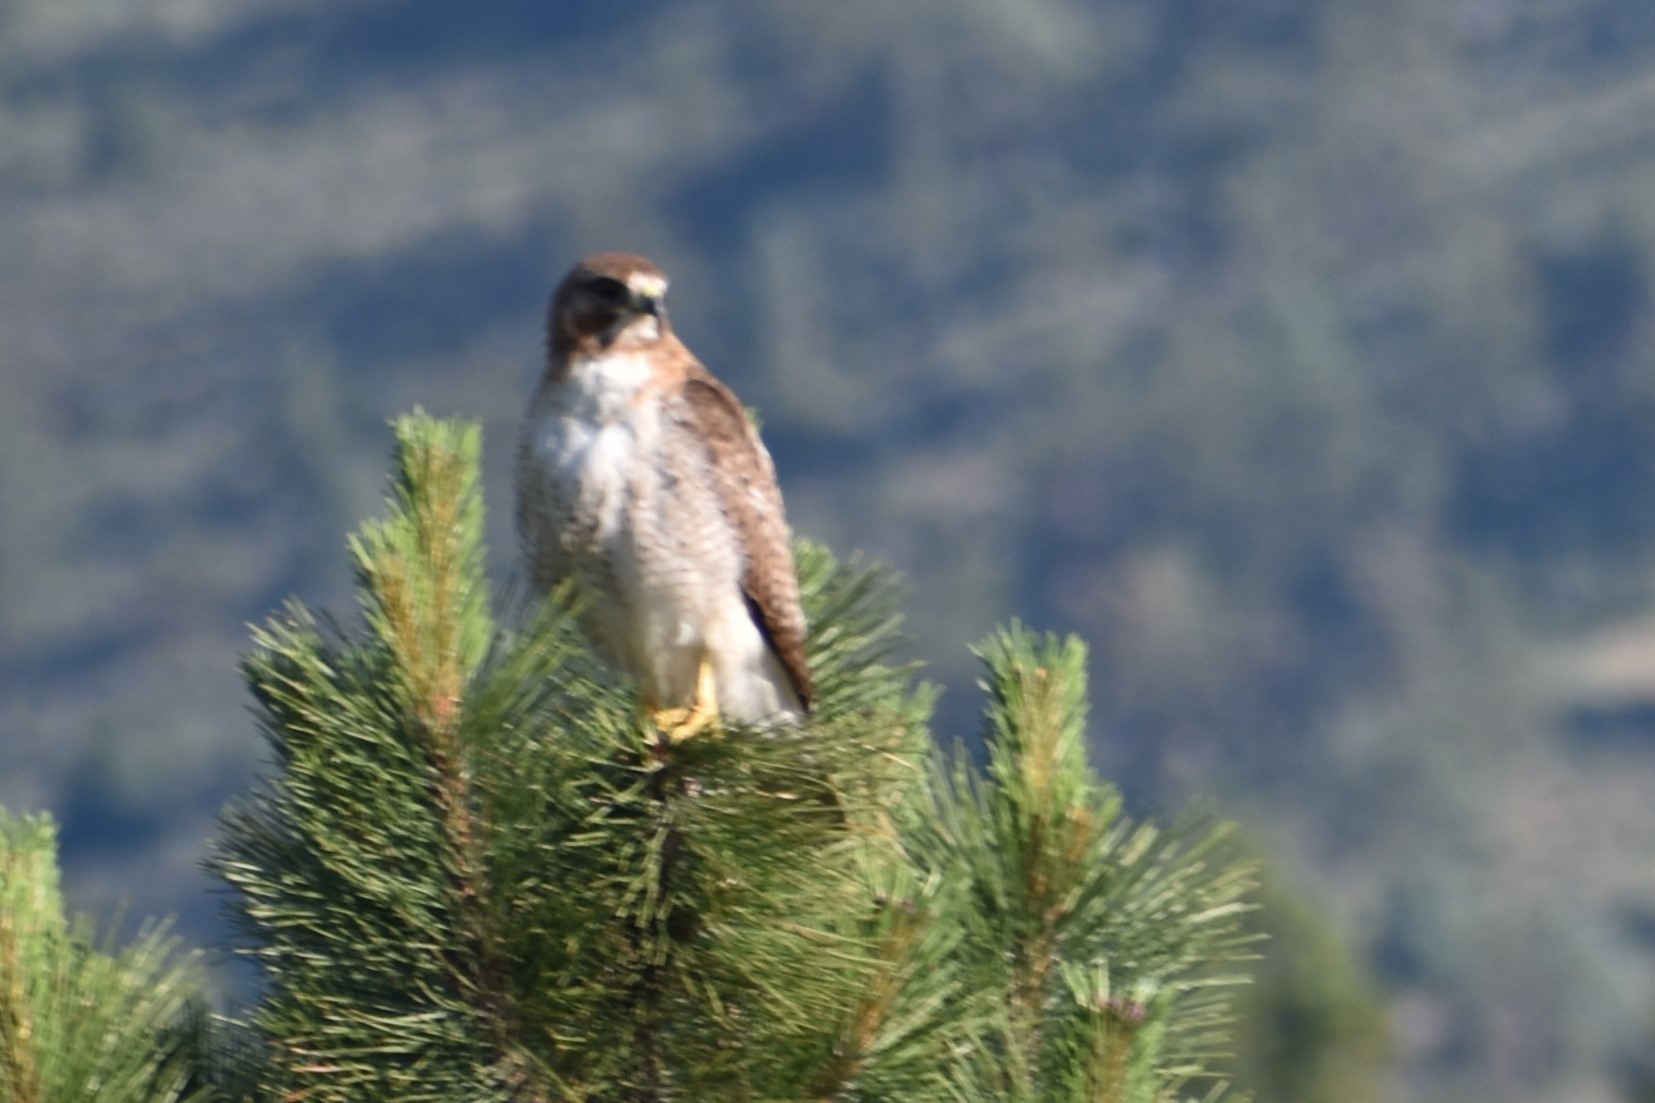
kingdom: Animalia
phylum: Chordata
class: Aves
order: Accipitriformes
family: Accipitridae
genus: Buteo
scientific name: Buteo swainsoni
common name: Swainson's hawk
